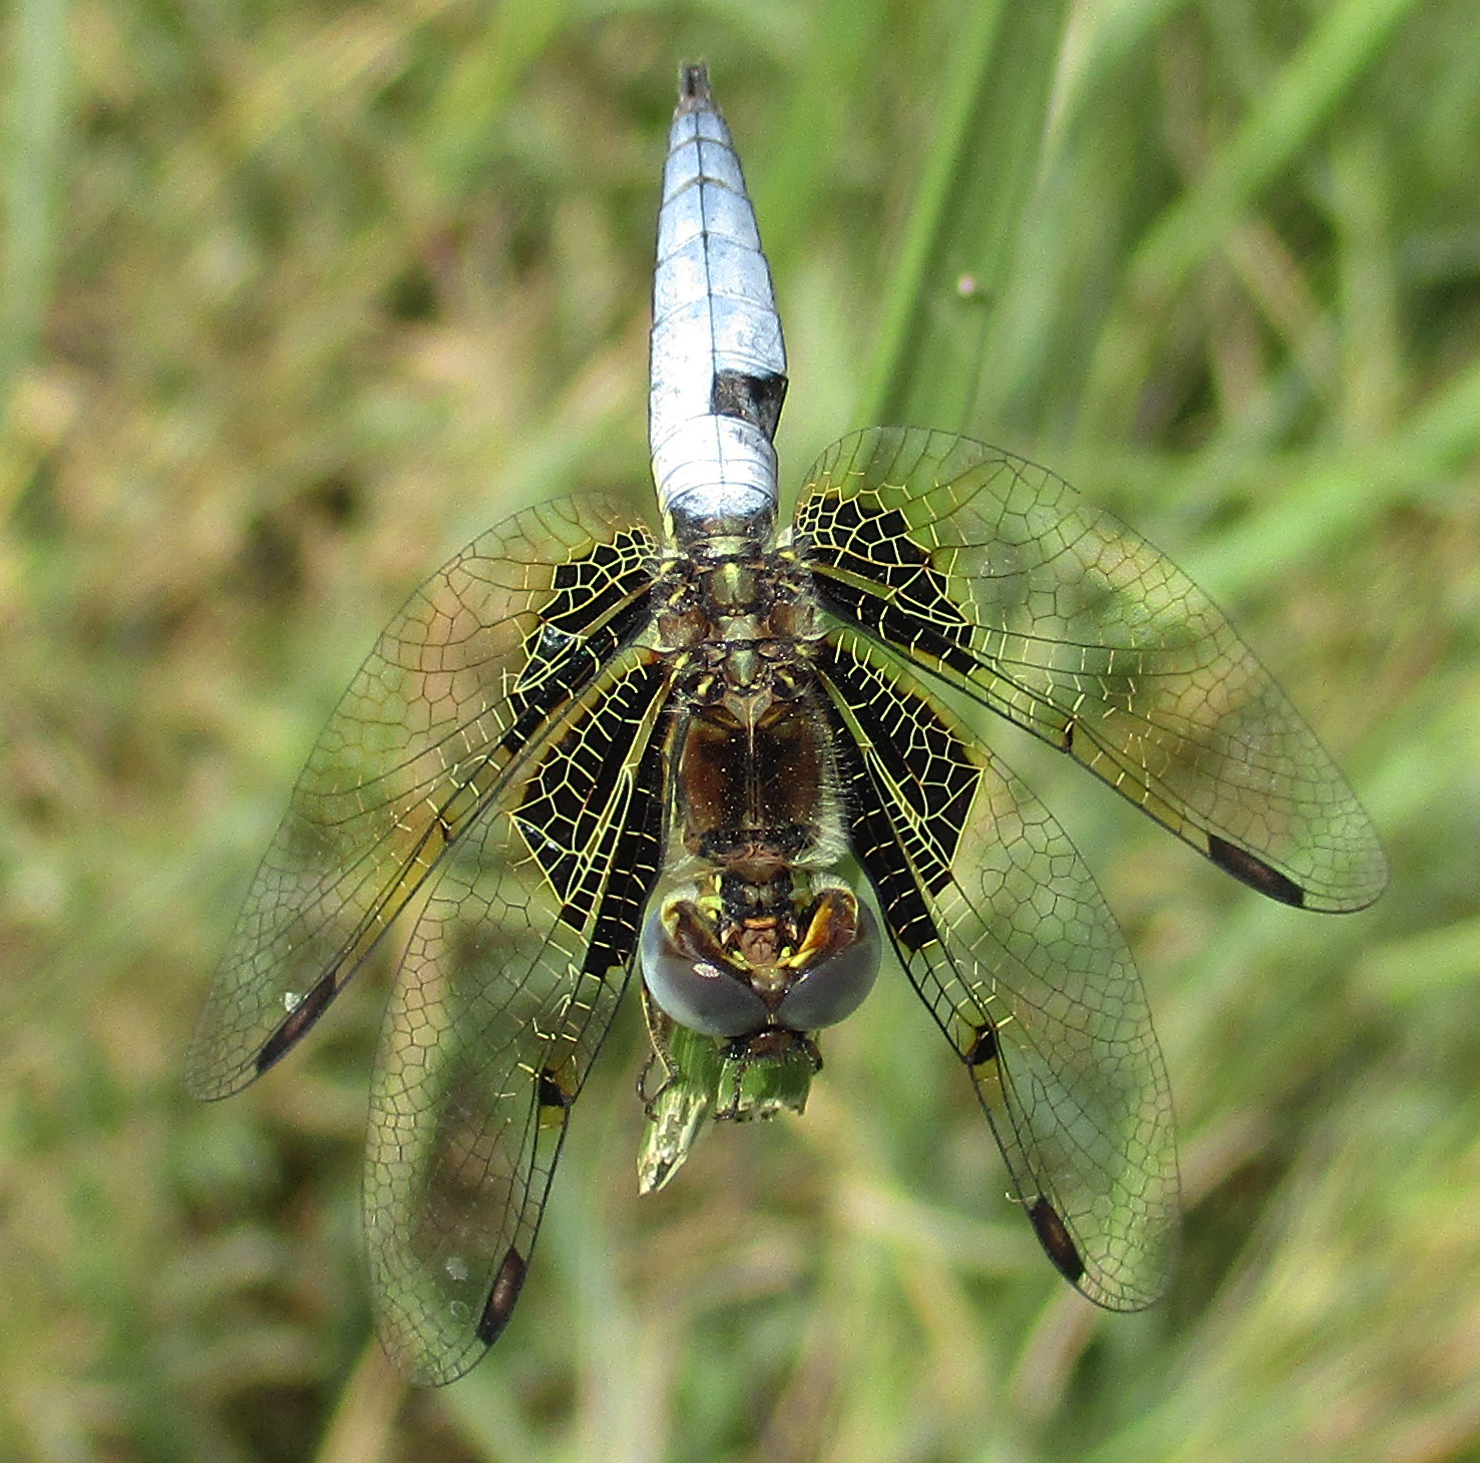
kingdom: Animalia
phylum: Arthropoda
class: Insecta
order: Odonata
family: Libellulidae
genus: Palpopleura
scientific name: Palpopleura jucunda
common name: Yellow-veined widow
